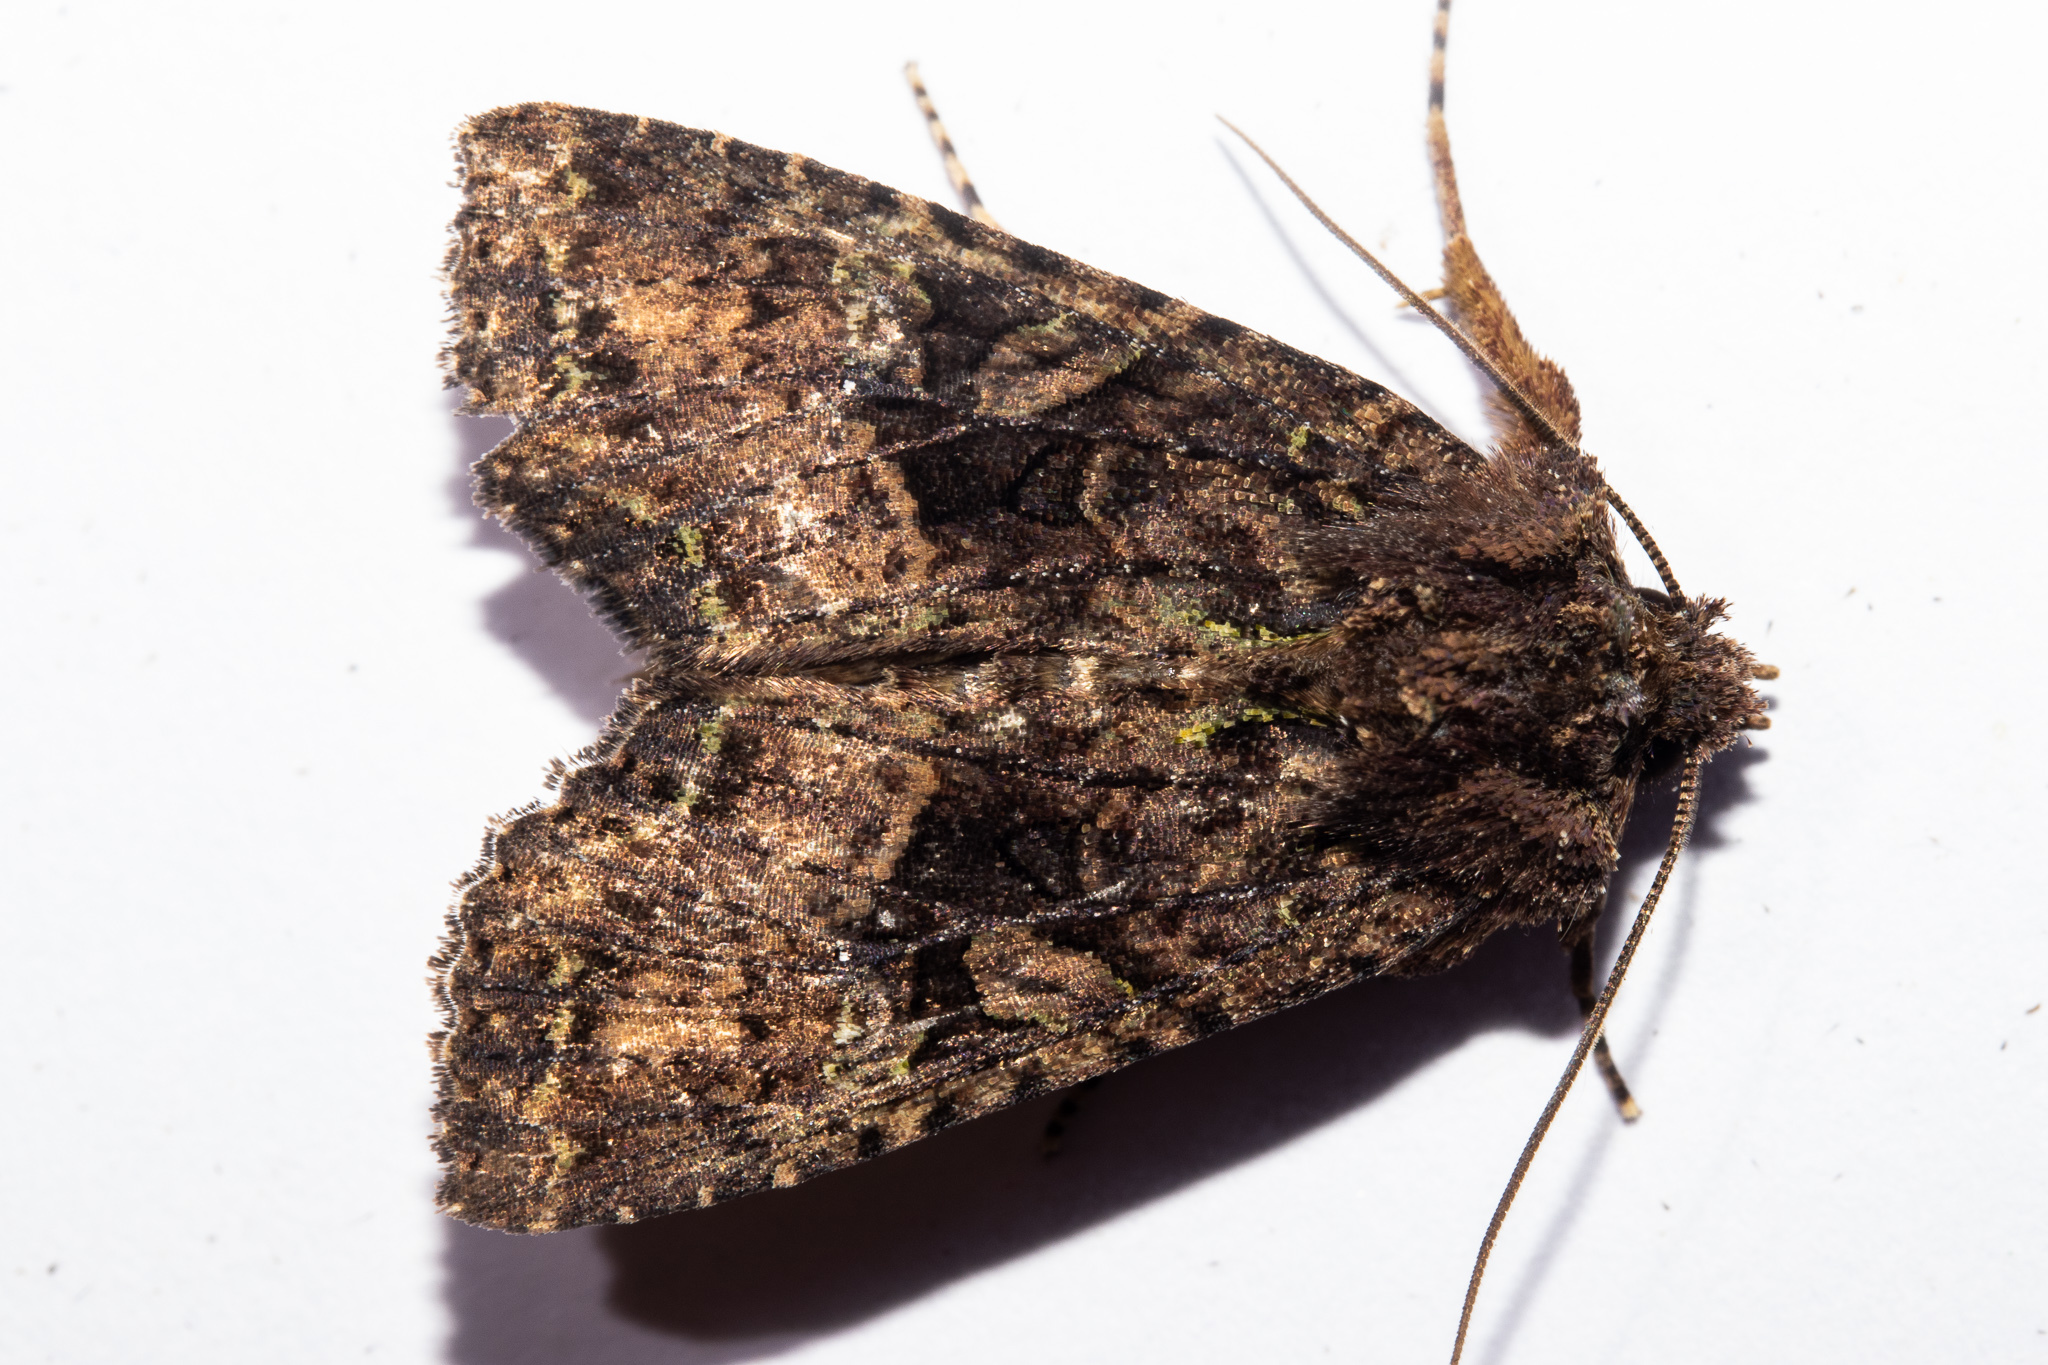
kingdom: Animalia
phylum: Arthropoda
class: Insecta
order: Lepidoptera
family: Noctuidae
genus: Meterana
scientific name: Meterana ochthistis
